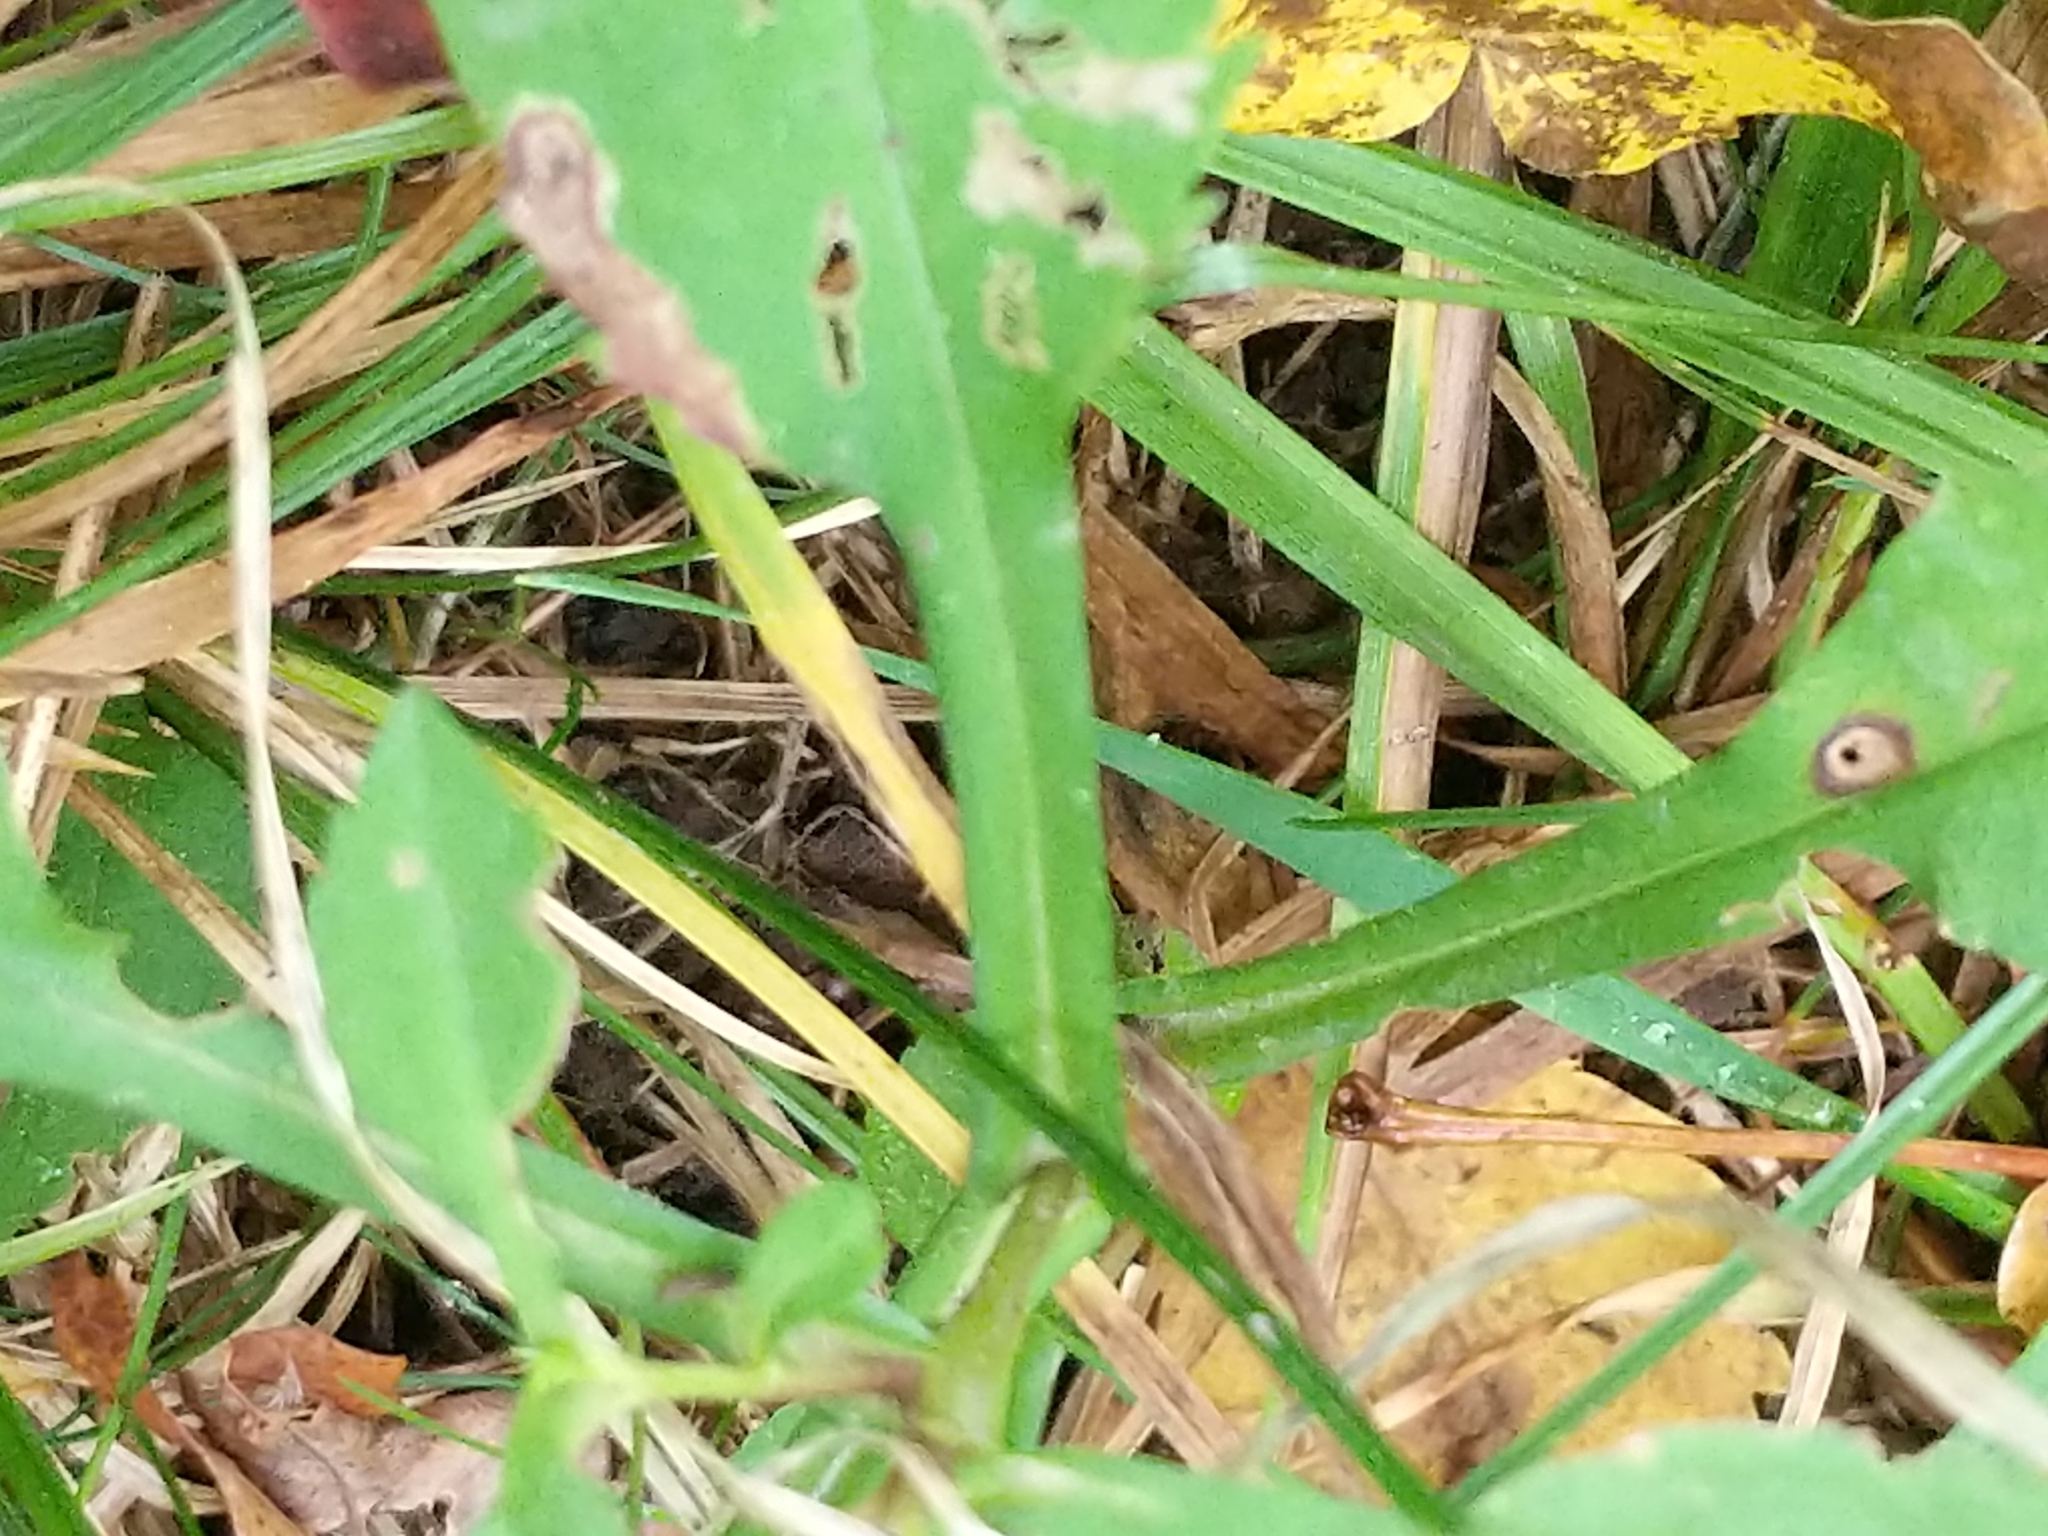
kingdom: Plantae
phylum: Tracheophyta
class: Magnoliopsida
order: Asterales
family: Asteraceae
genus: Symphyotrichum
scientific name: Symphyotrichum prenanthoides
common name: Crooked-stem aster
